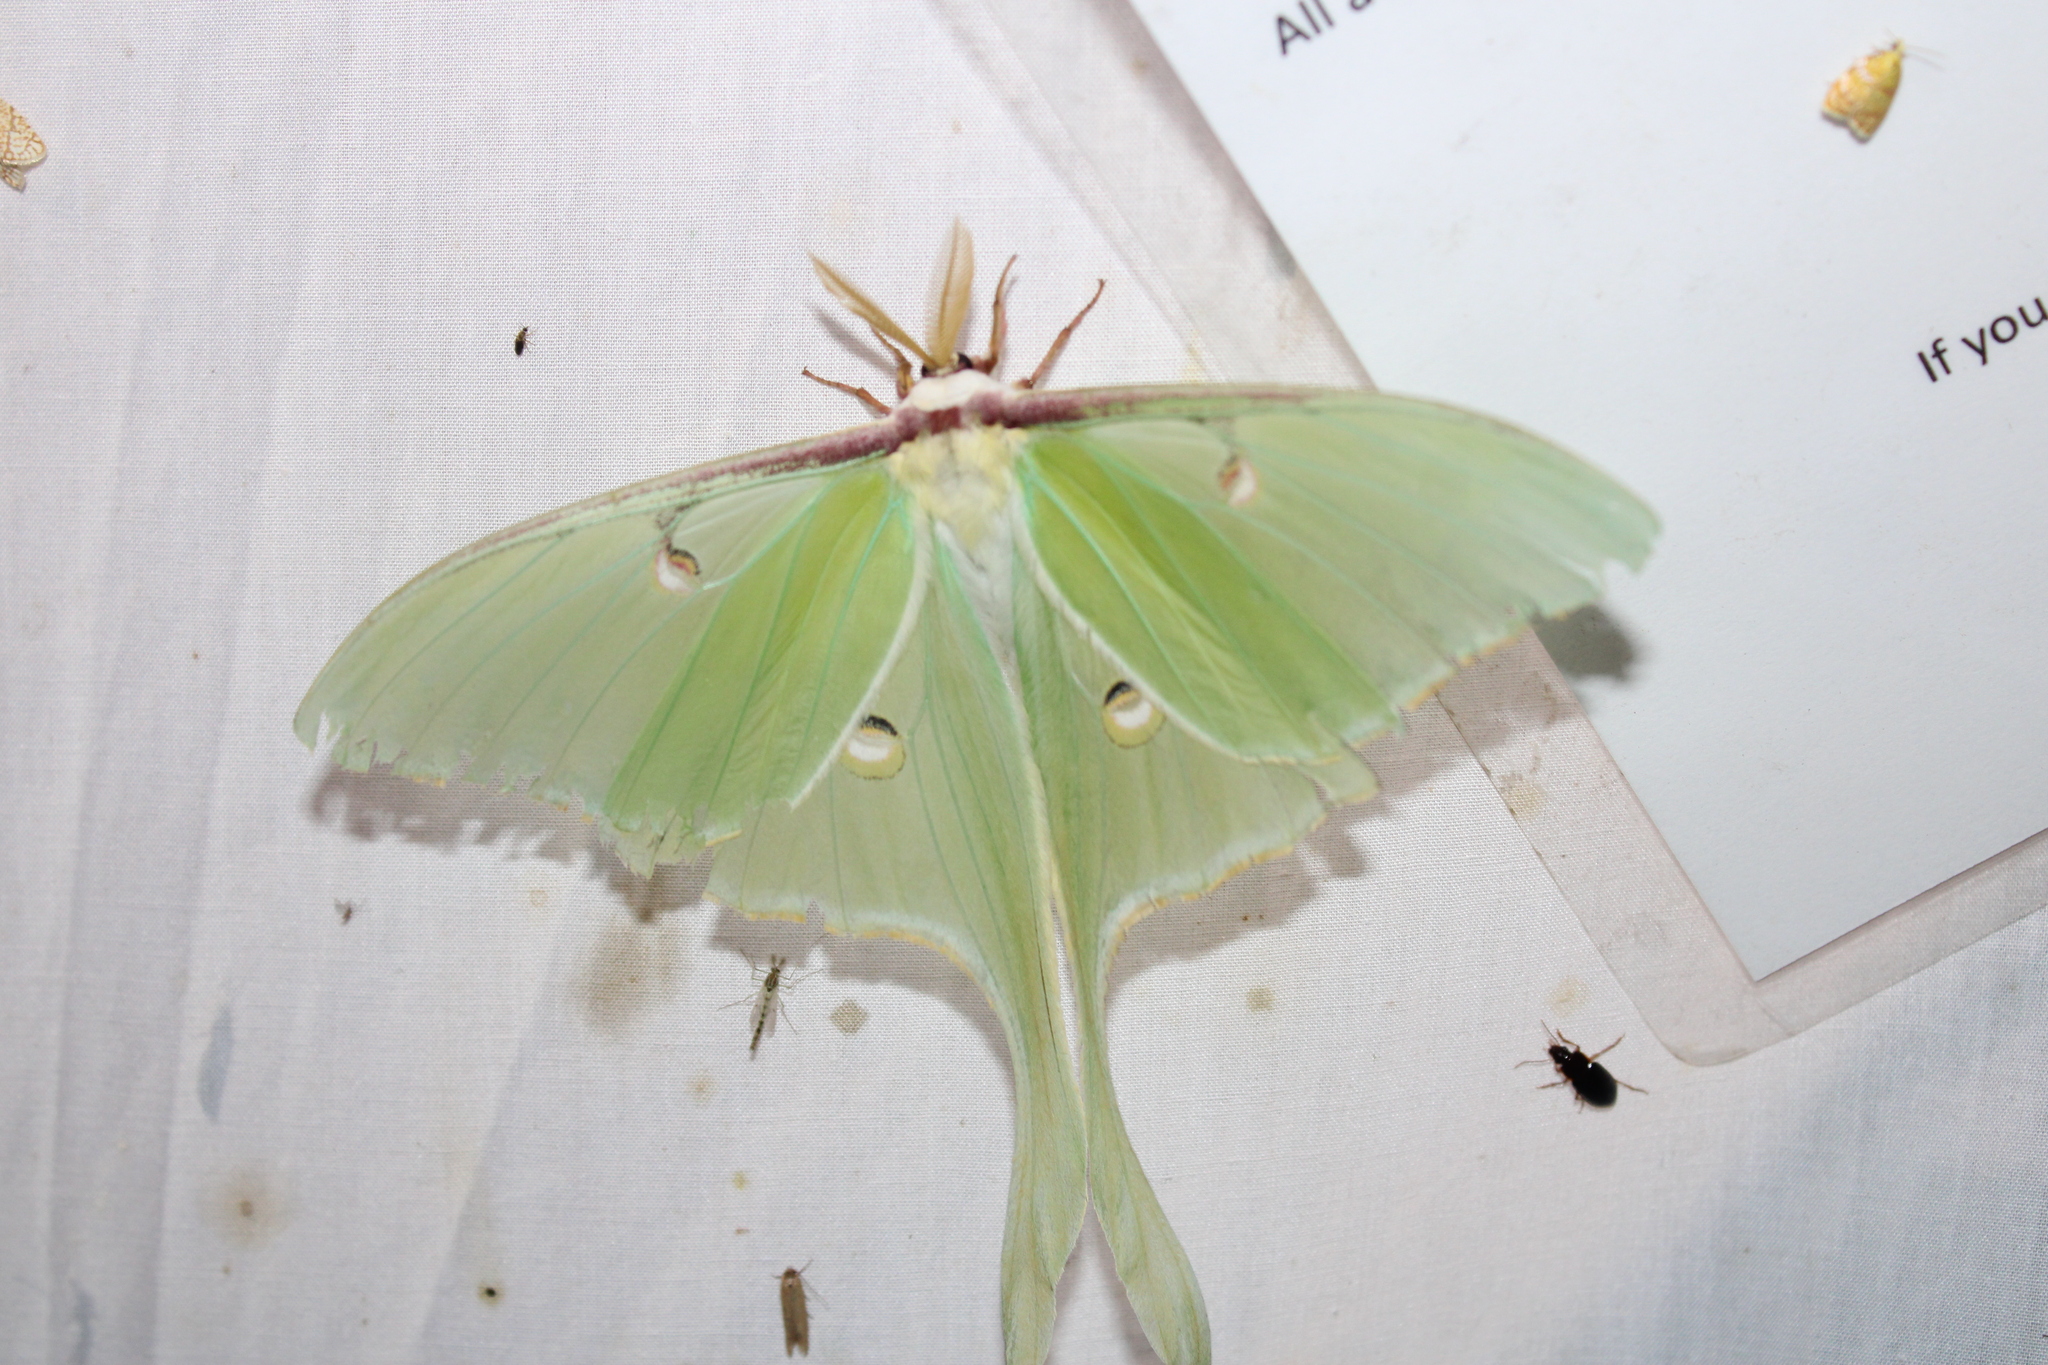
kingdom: Animalia
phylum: Arthropoda
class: Insecta
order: Lepidoptera
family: Saturniidae
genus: Actias
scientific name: Actias luna
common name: Luna moth
